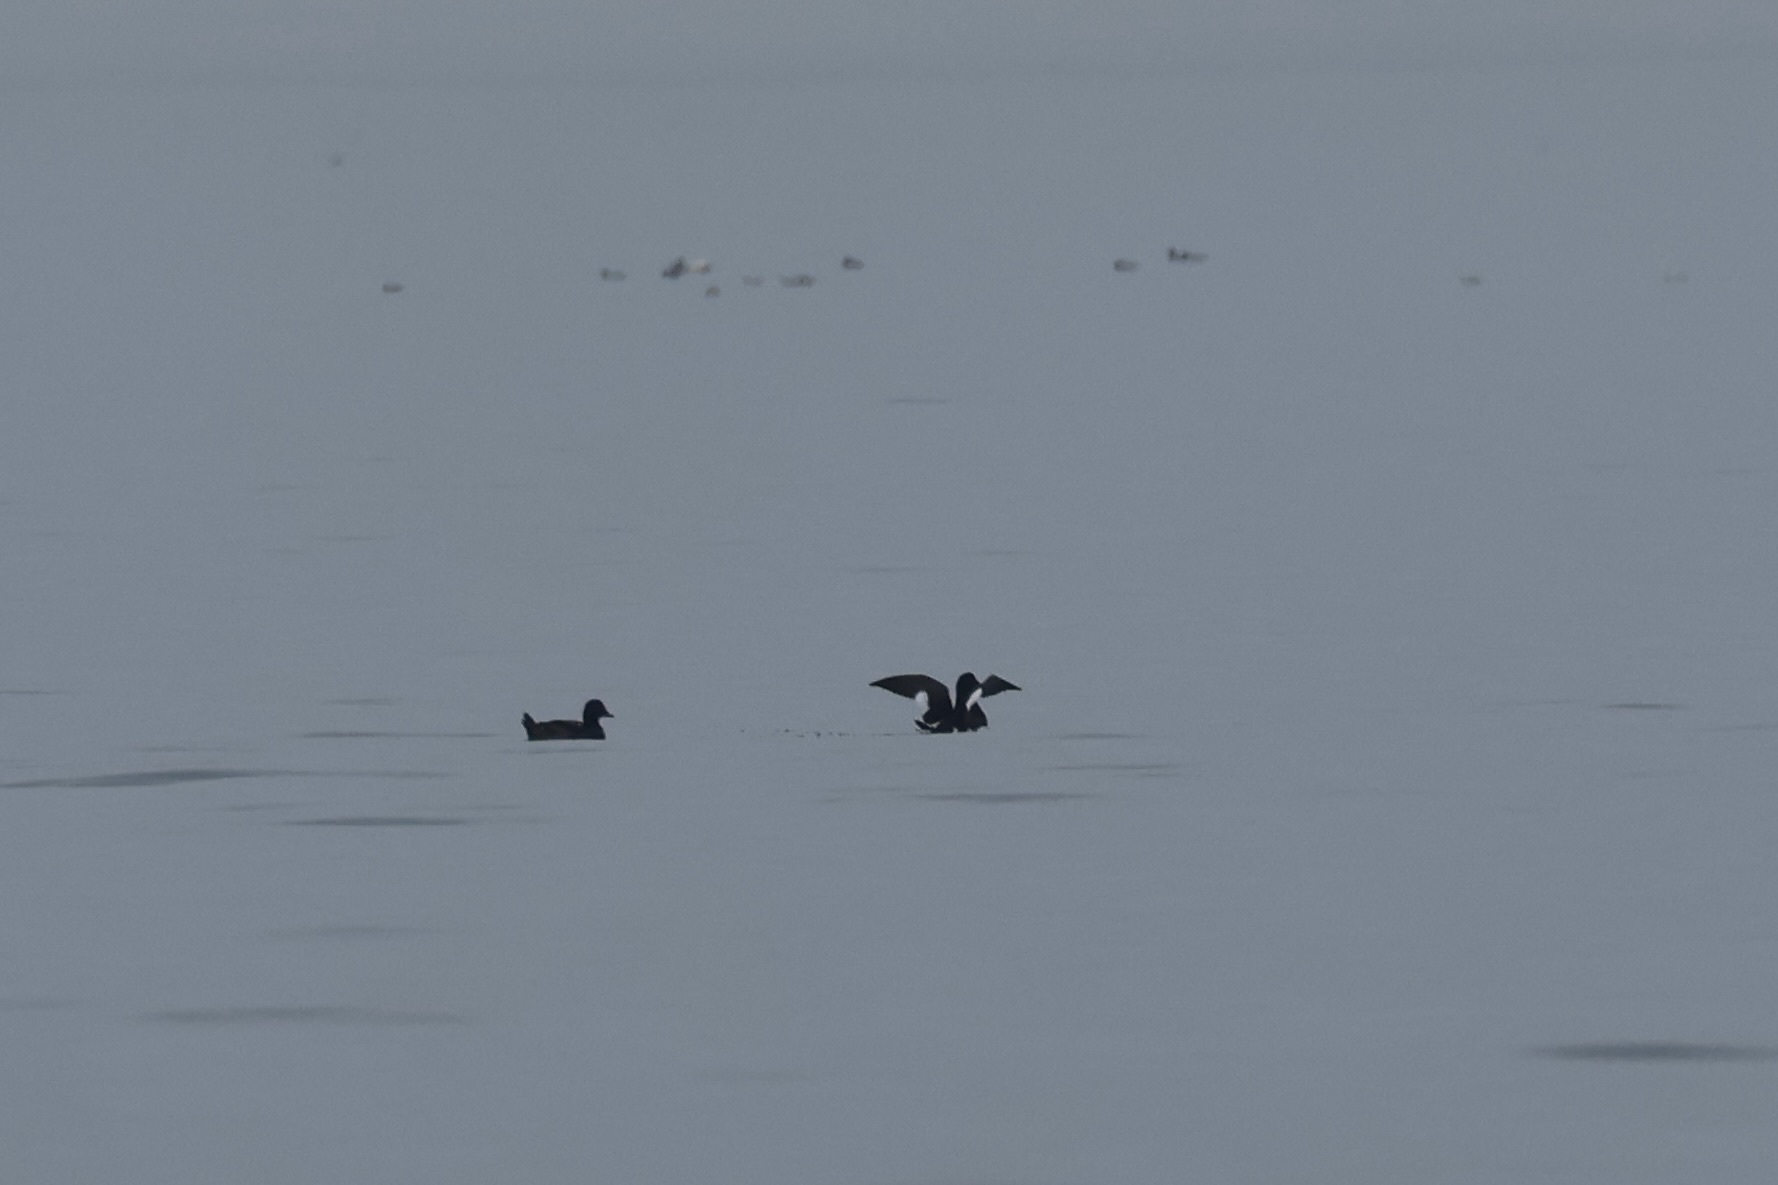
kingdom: Animalia
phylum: Chordata
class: Aves
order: Anseriformes
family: Anatidae
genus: Melanitta
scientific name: Melanitta deglandi
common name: White-winged scoter
